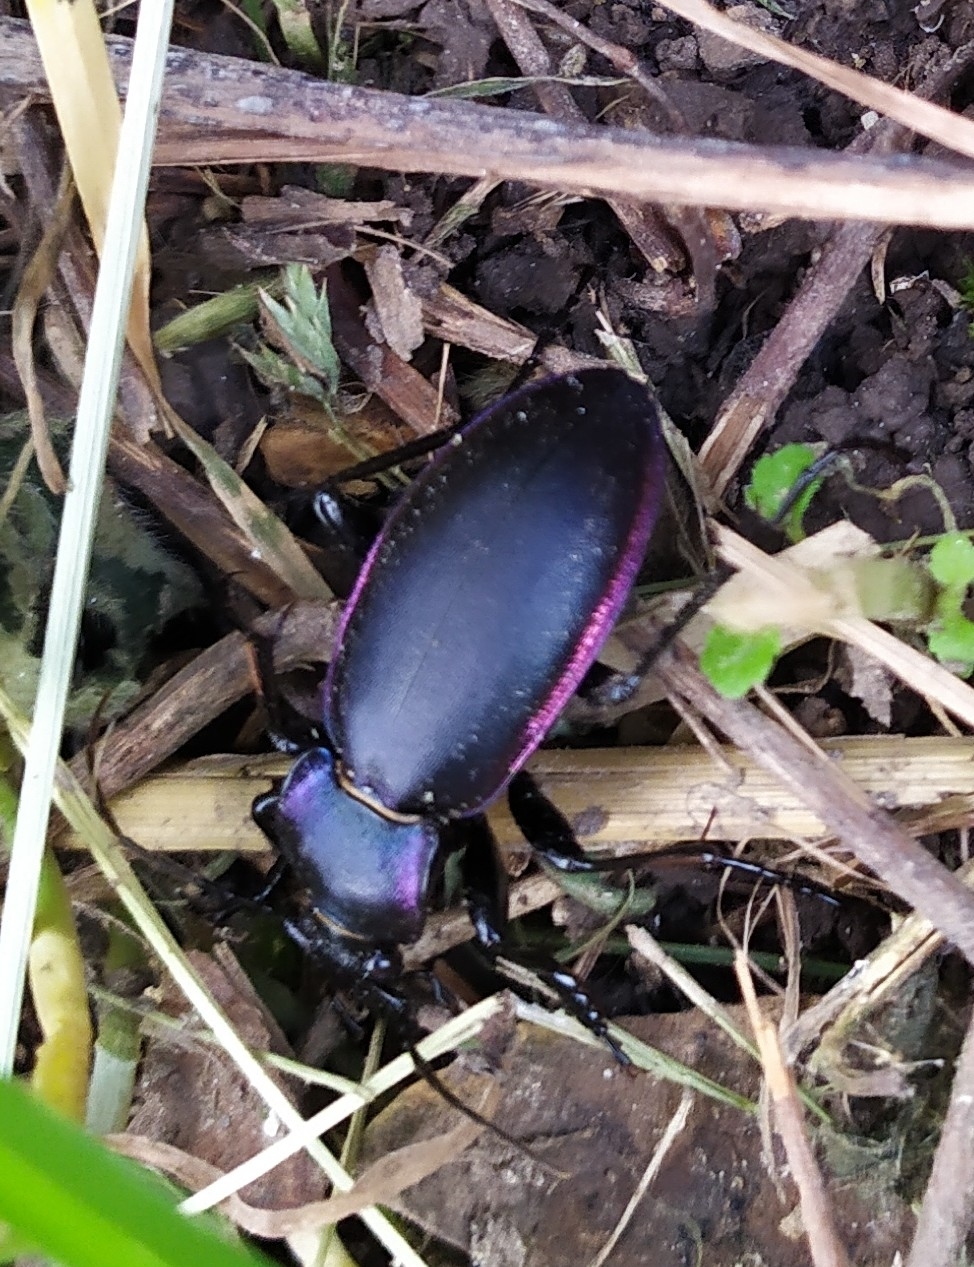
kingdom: Animalia
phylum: Arthropoda
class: Insecta
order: Coleoptera
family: Carabidae
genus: Carabus
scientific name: Carabus violaceus
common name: Violet ground beetle
